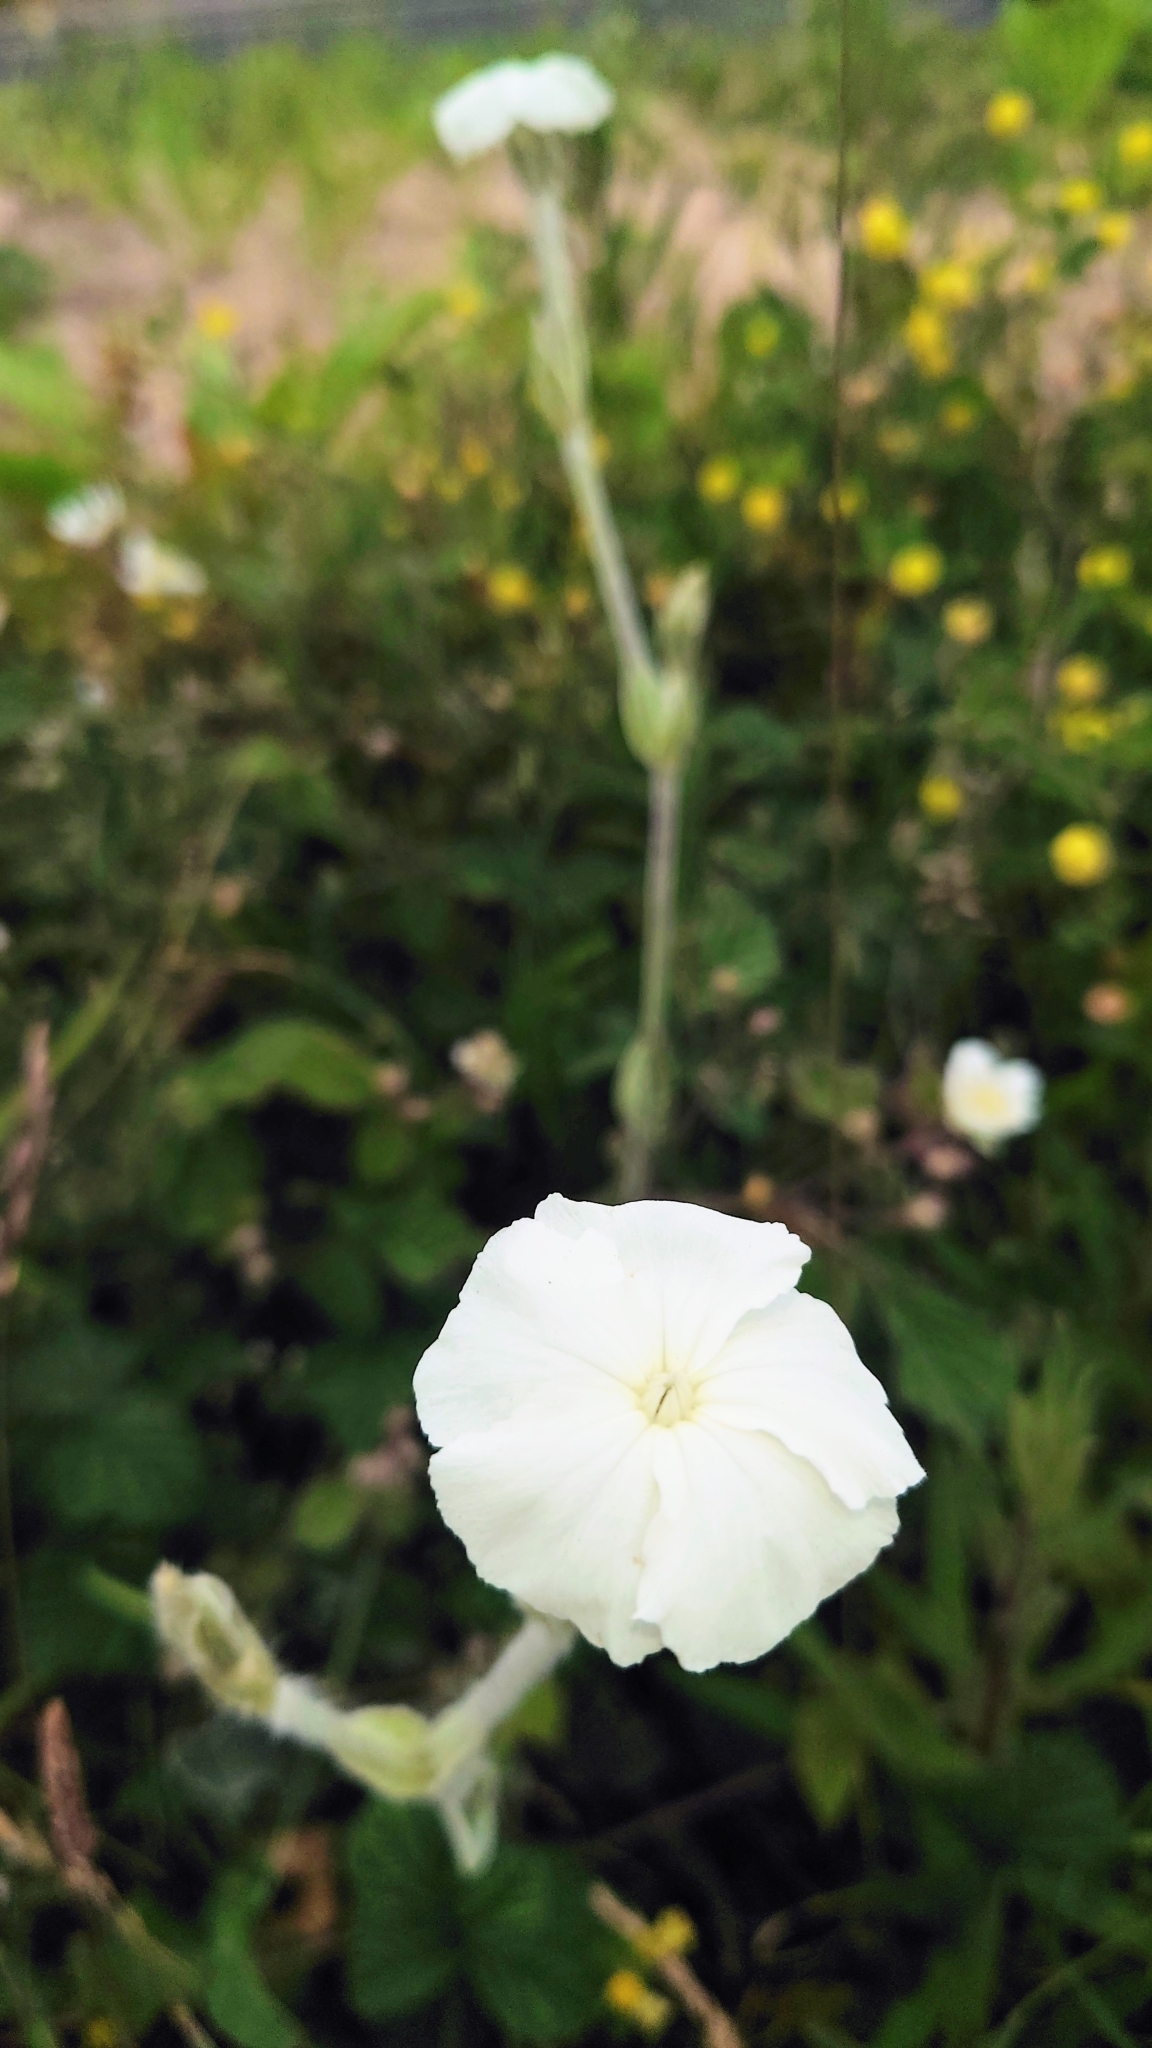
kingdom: Plantae
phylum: Tracheophyta
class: Magnoliopsida
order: Caryophyllales
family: Caryophyllaceae
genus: Silene
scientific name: Silene coronaria
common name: Rose campion
